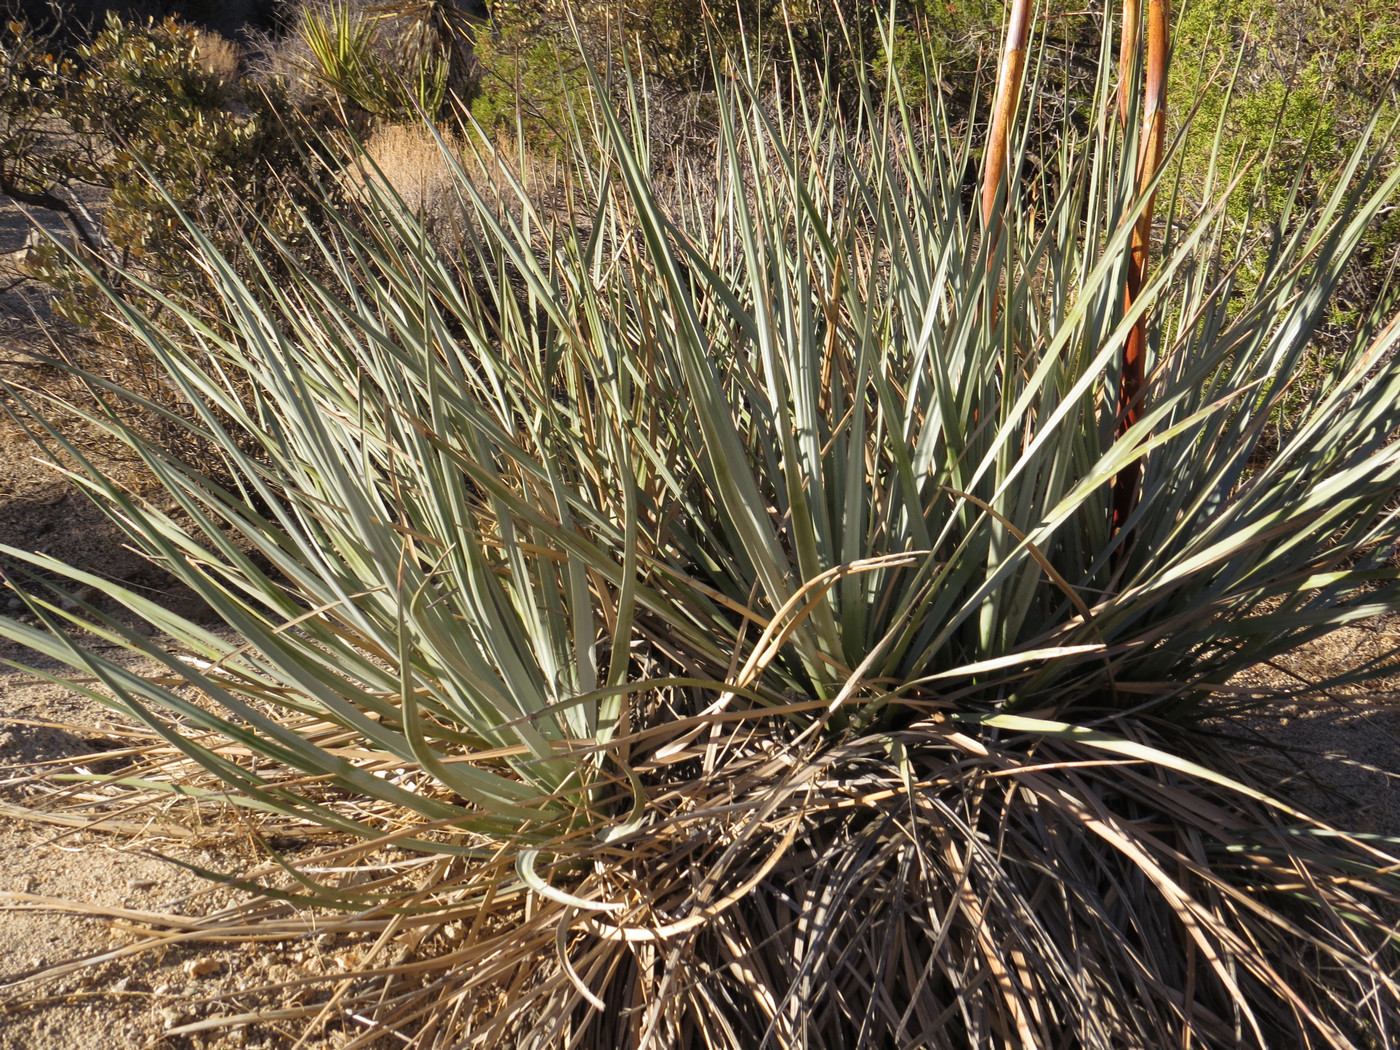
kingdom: Plantae
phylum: Tracheophyta
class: Liliopsida
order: Asparagales
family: Asparagaceae
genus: Nolina
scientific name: Nolina bigelovii
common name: Bigelow bear-grass
